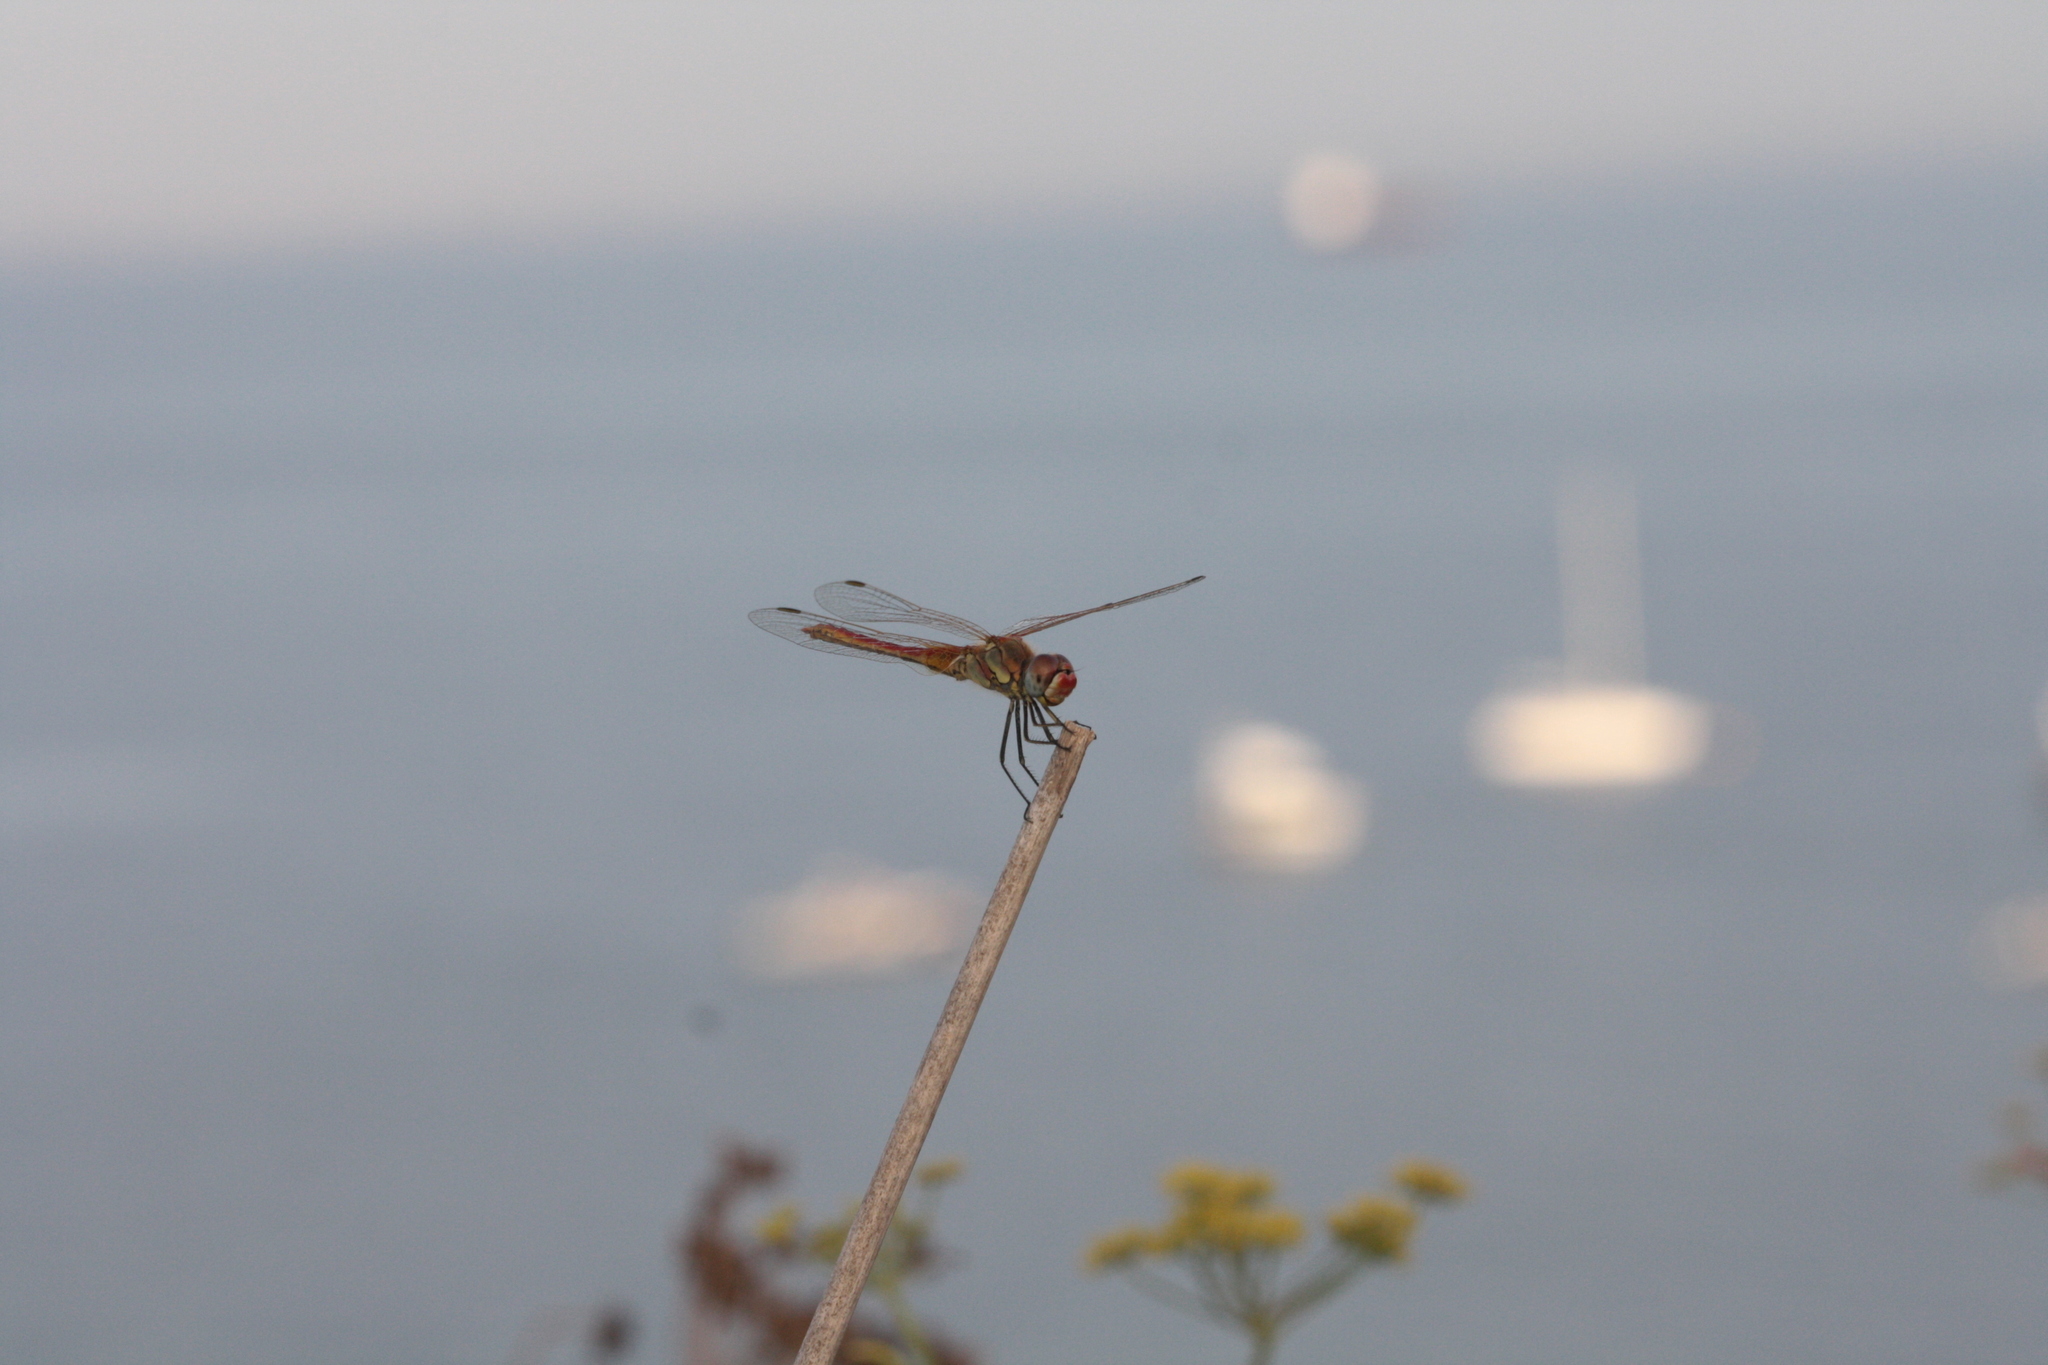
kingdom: Animalia
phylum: Arthropoda
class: Insecta
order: Odonata
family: Libellulidae
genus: Sympetrum
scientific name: Sympetrum fonscolombii
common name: Red-veined darter
